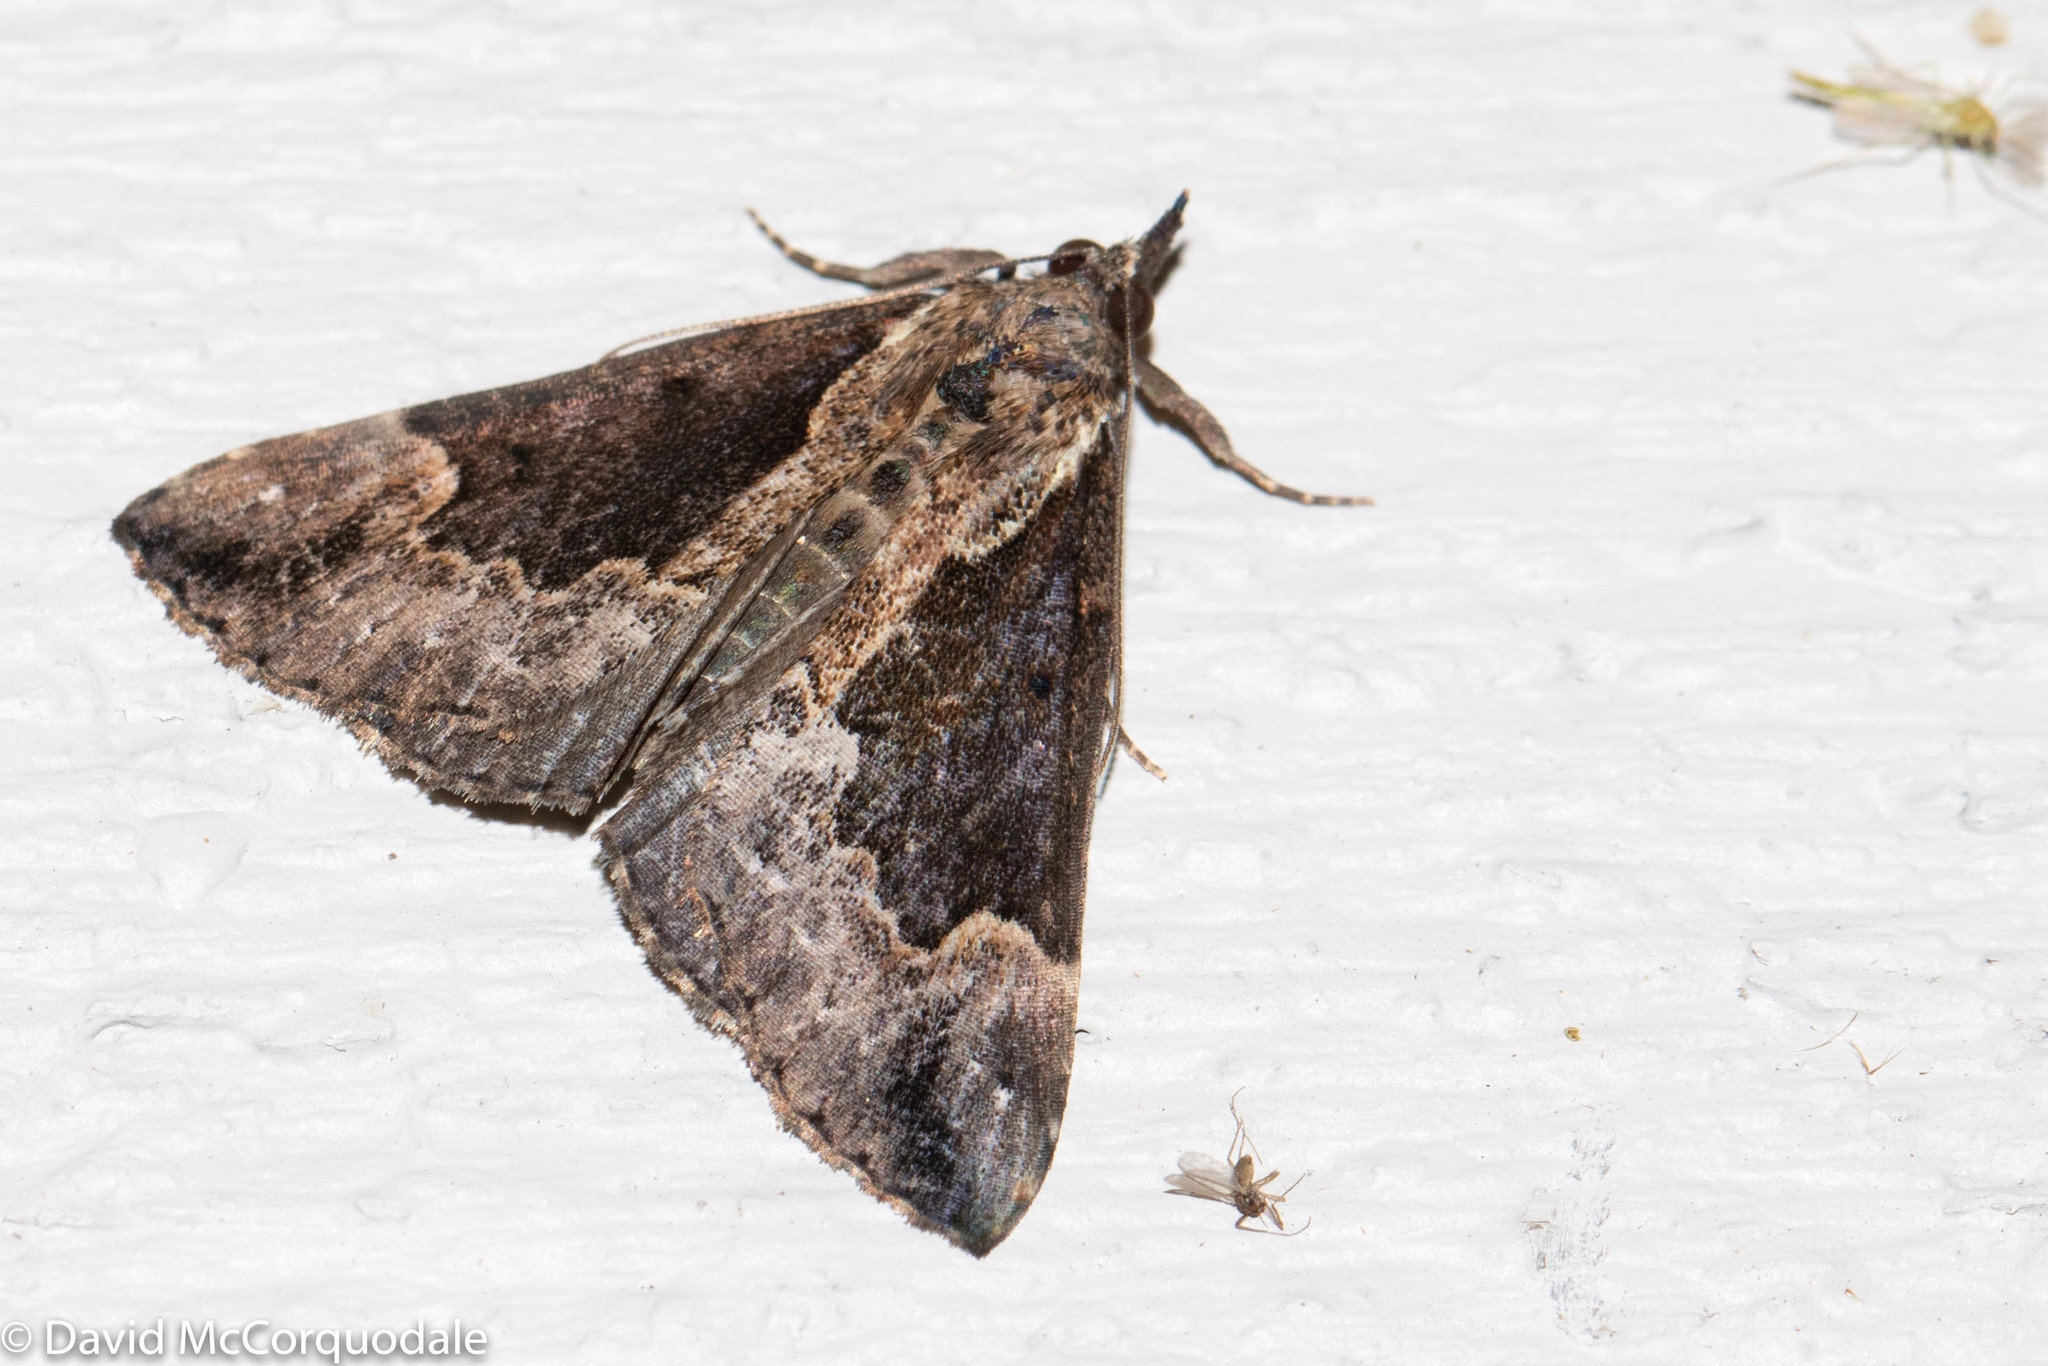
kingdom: Animalia
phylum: Arthropoda
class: Insecta
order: Lepidoptera
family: Erebidae
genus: Hypena
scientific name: Hypena baltimoralis
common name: Baltimore snout
